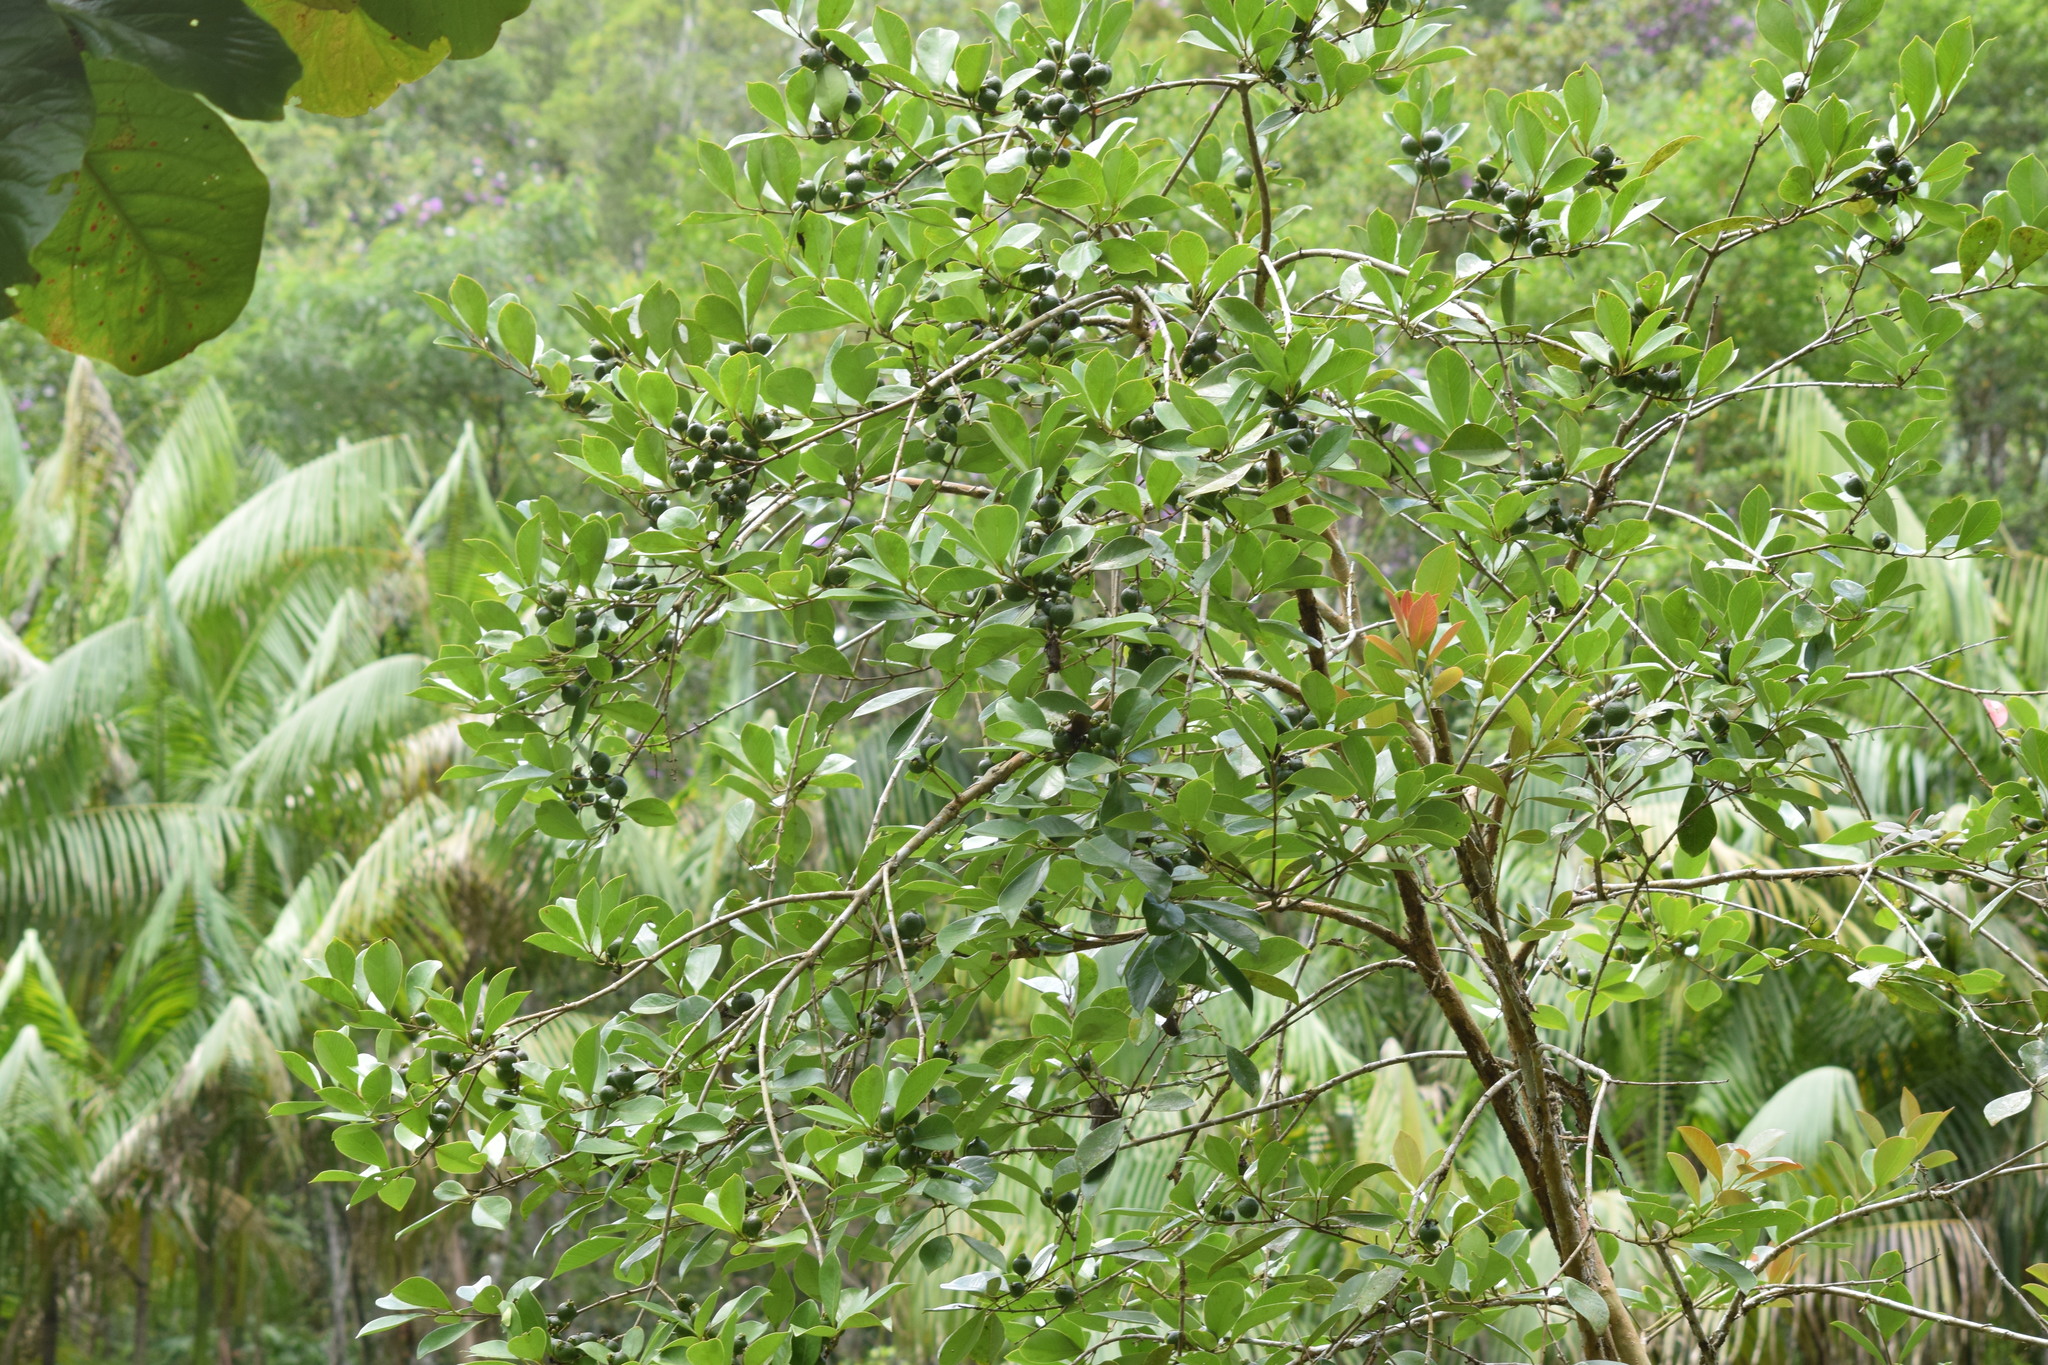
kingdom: Plantae
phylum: Tracheophyta
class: Magnoliopsida
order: Myrtales
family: Myrtaceae
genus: Psidium
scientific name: Psidium cattleianum
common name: Strawberry guava
